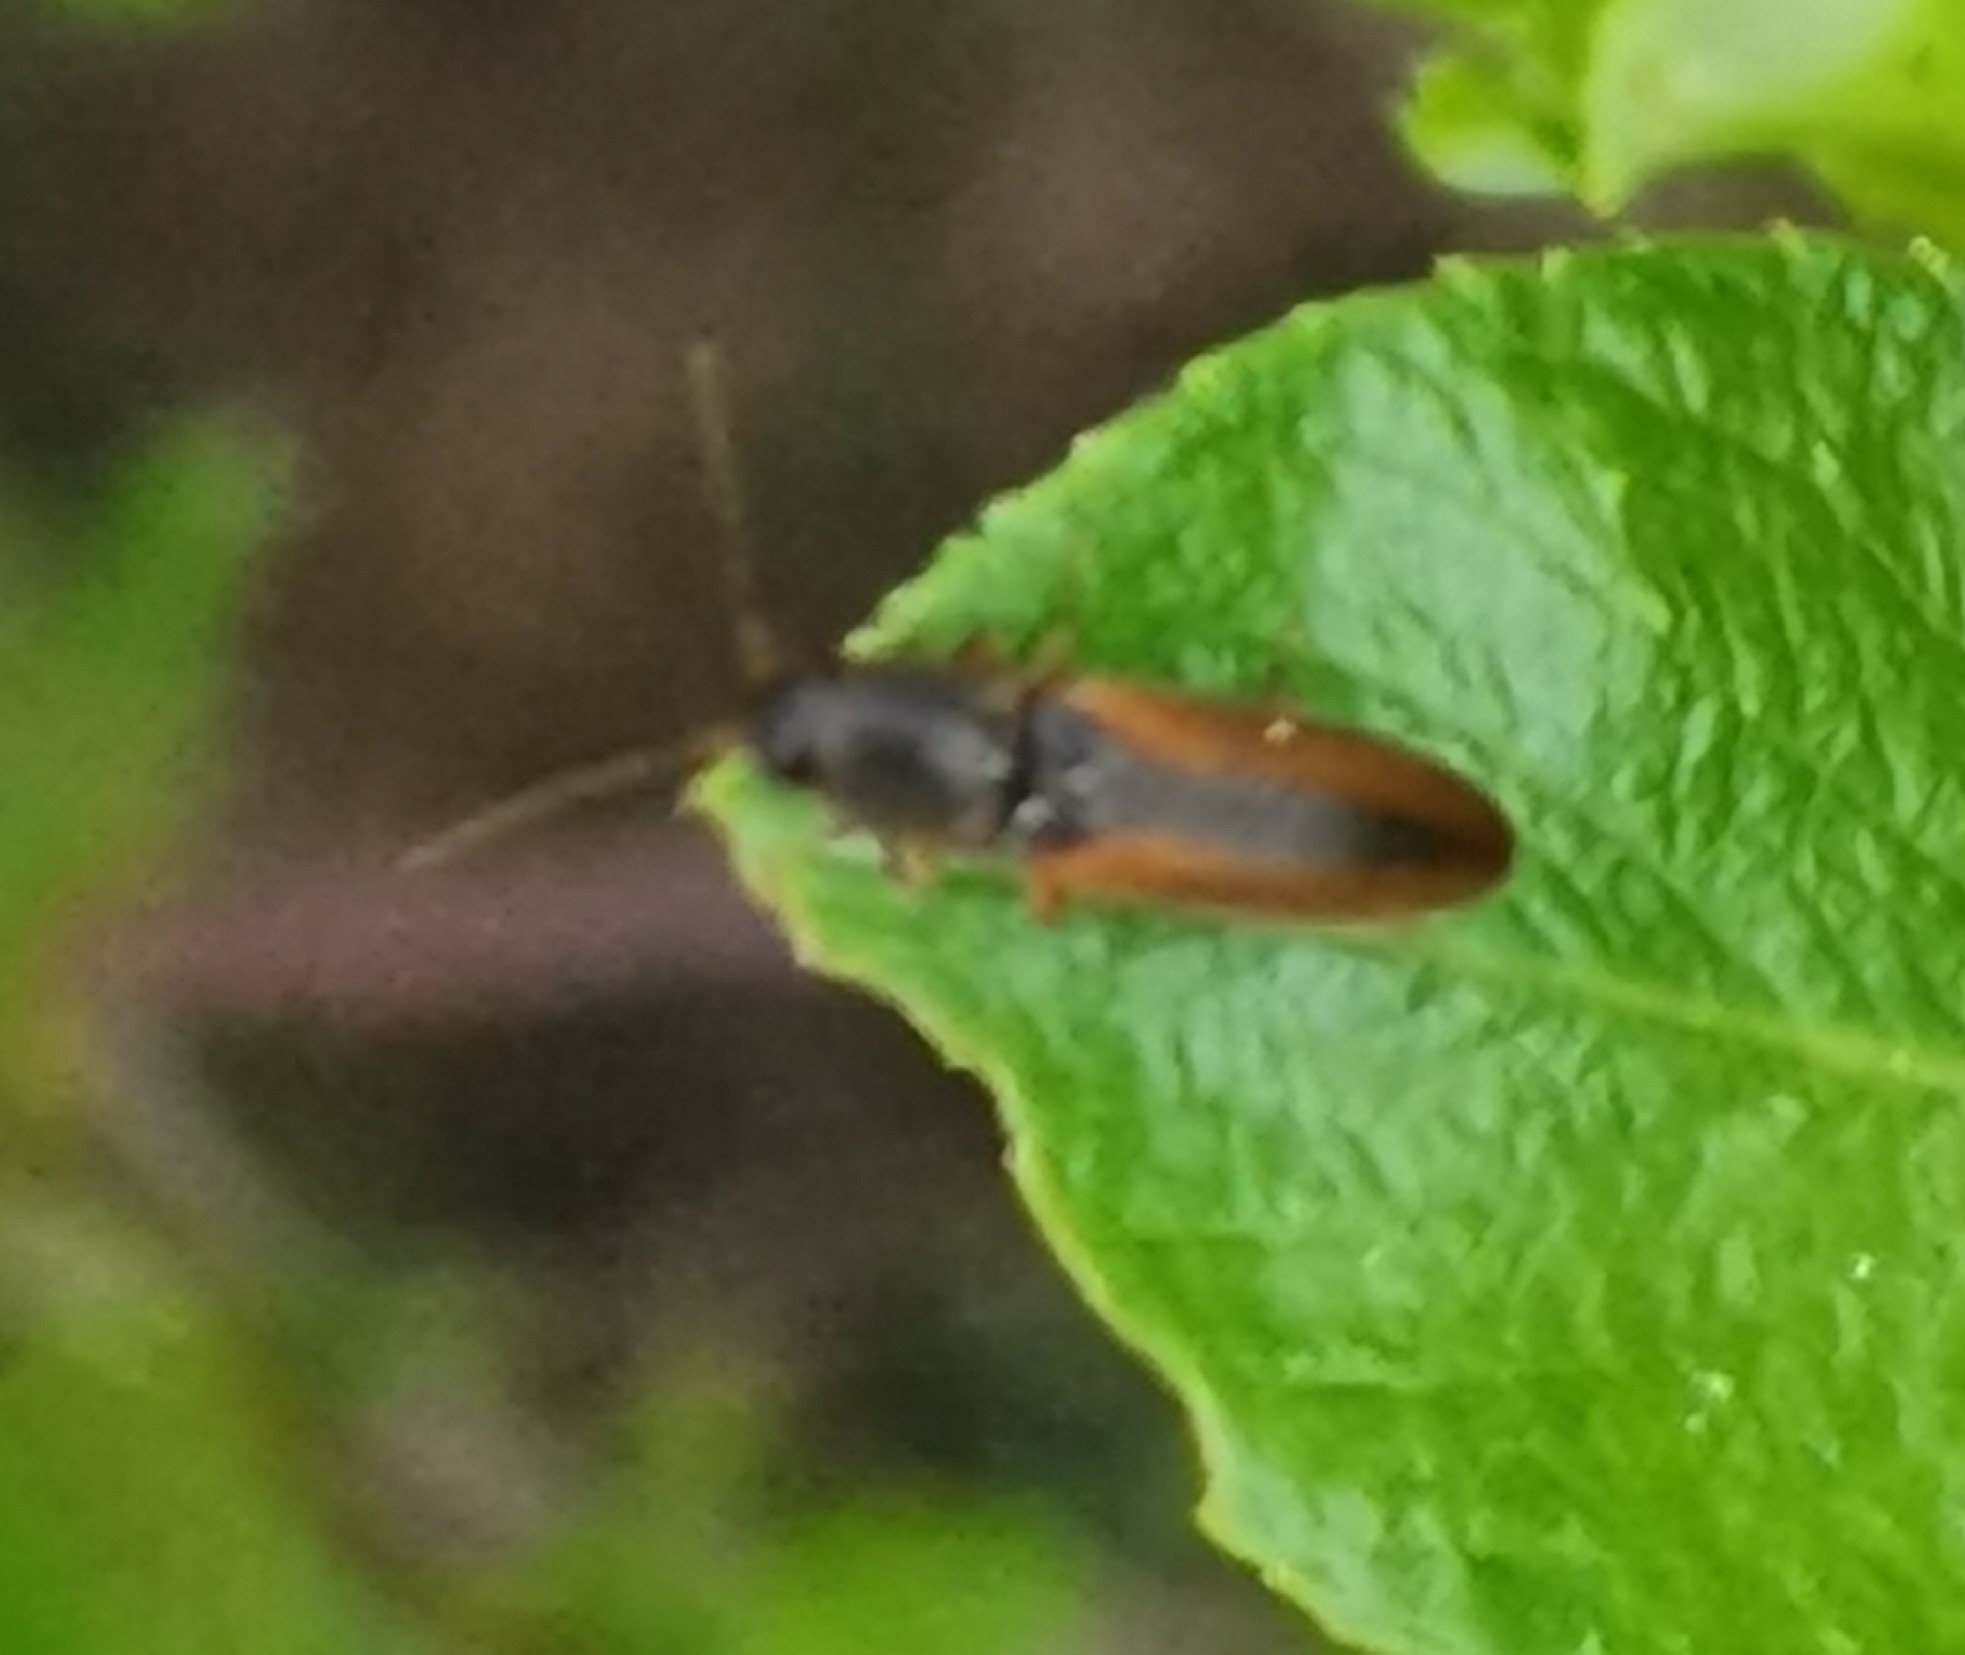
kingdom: Animalia
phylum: Arthropoda
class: Insecta
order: Coleoptera
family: Elateridae
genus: Dalopius
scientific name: Dalopius marginatus
